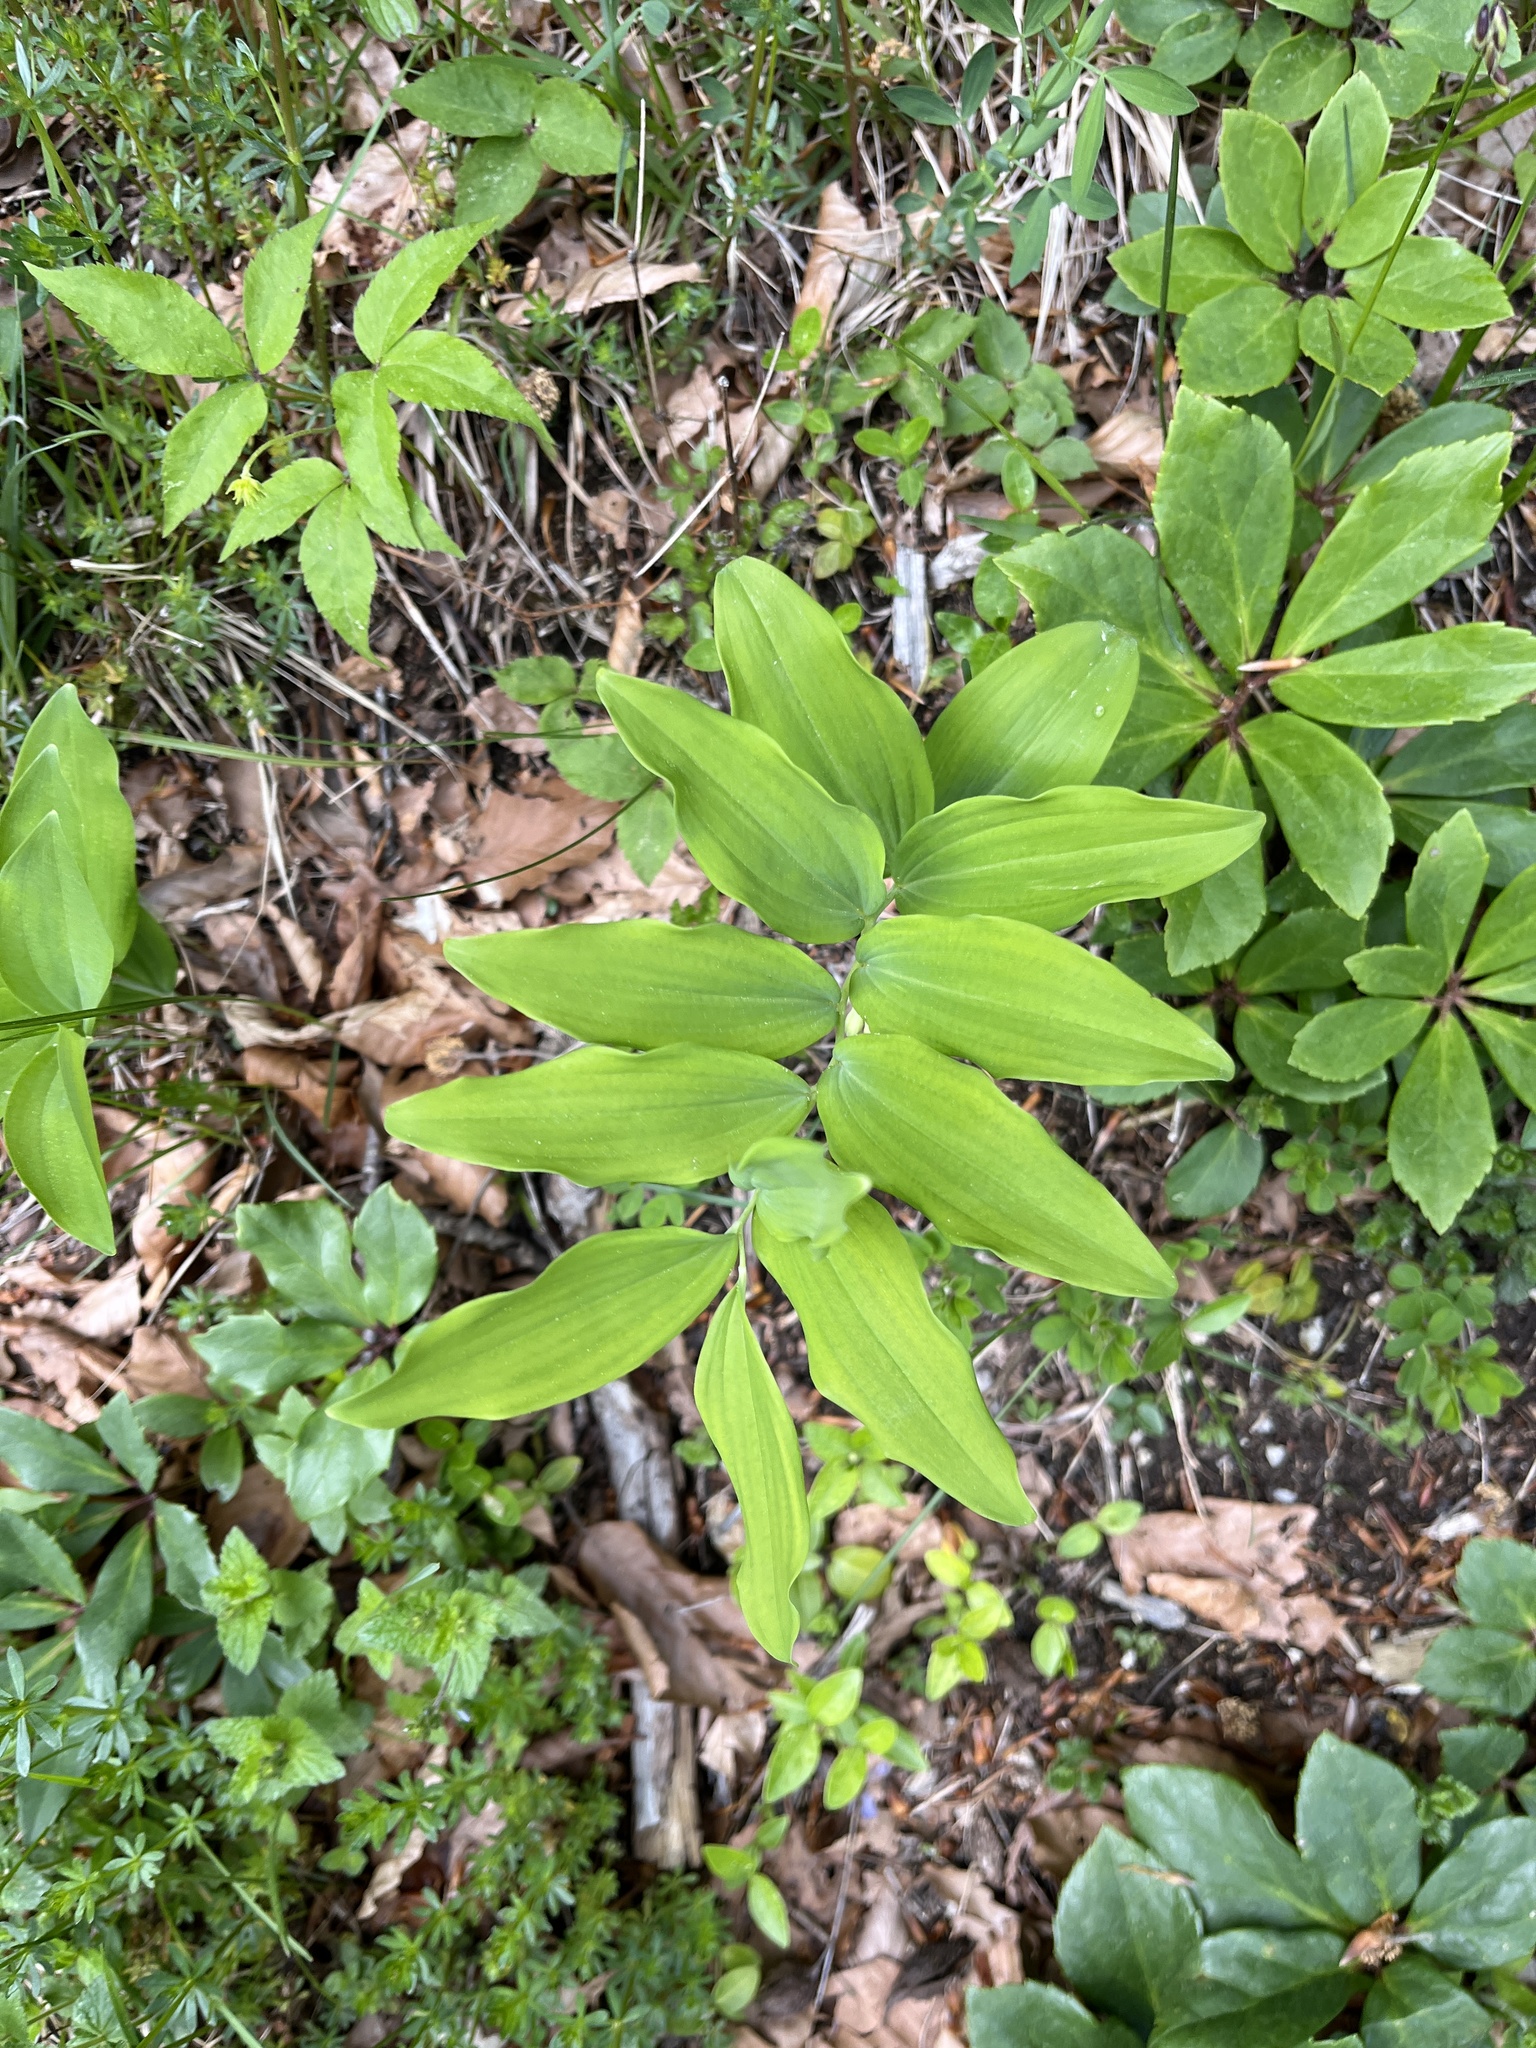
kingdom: Plantae
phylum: Tracheophyta
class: Liliopsida
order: Asparagales
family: Asparagaceae
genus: Polygonatum
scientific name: Polygonatum multiflorum
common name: Solomon's-seal
